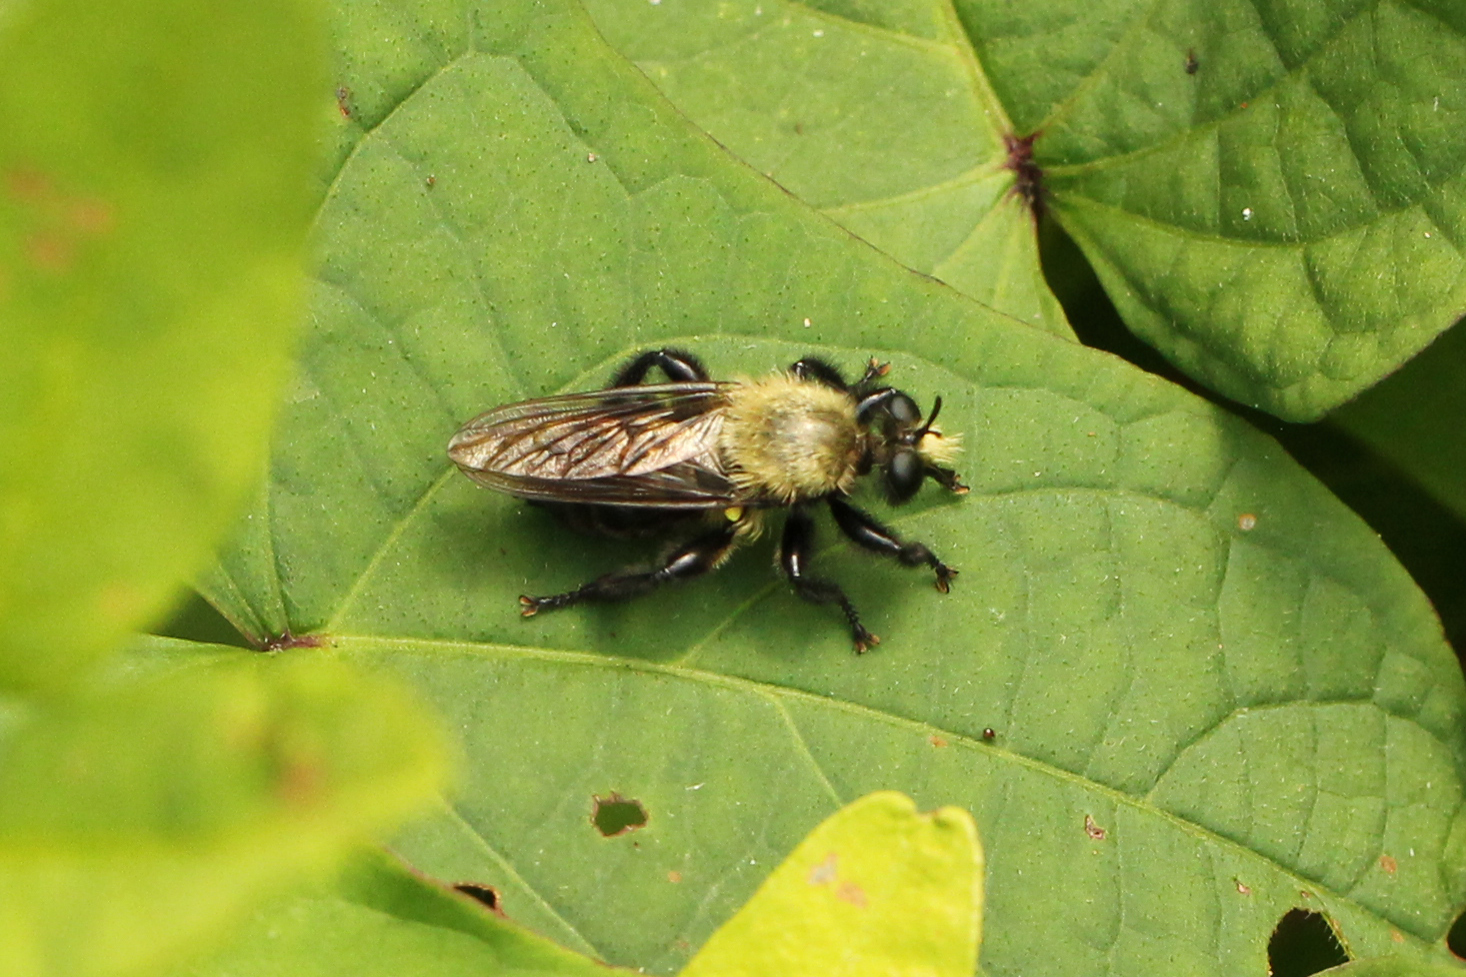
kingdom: Animalia
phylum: Arthropoda
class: Insecta
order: Diptera
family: Asilidae
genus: Laphria
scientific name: Laphria flavicollis
